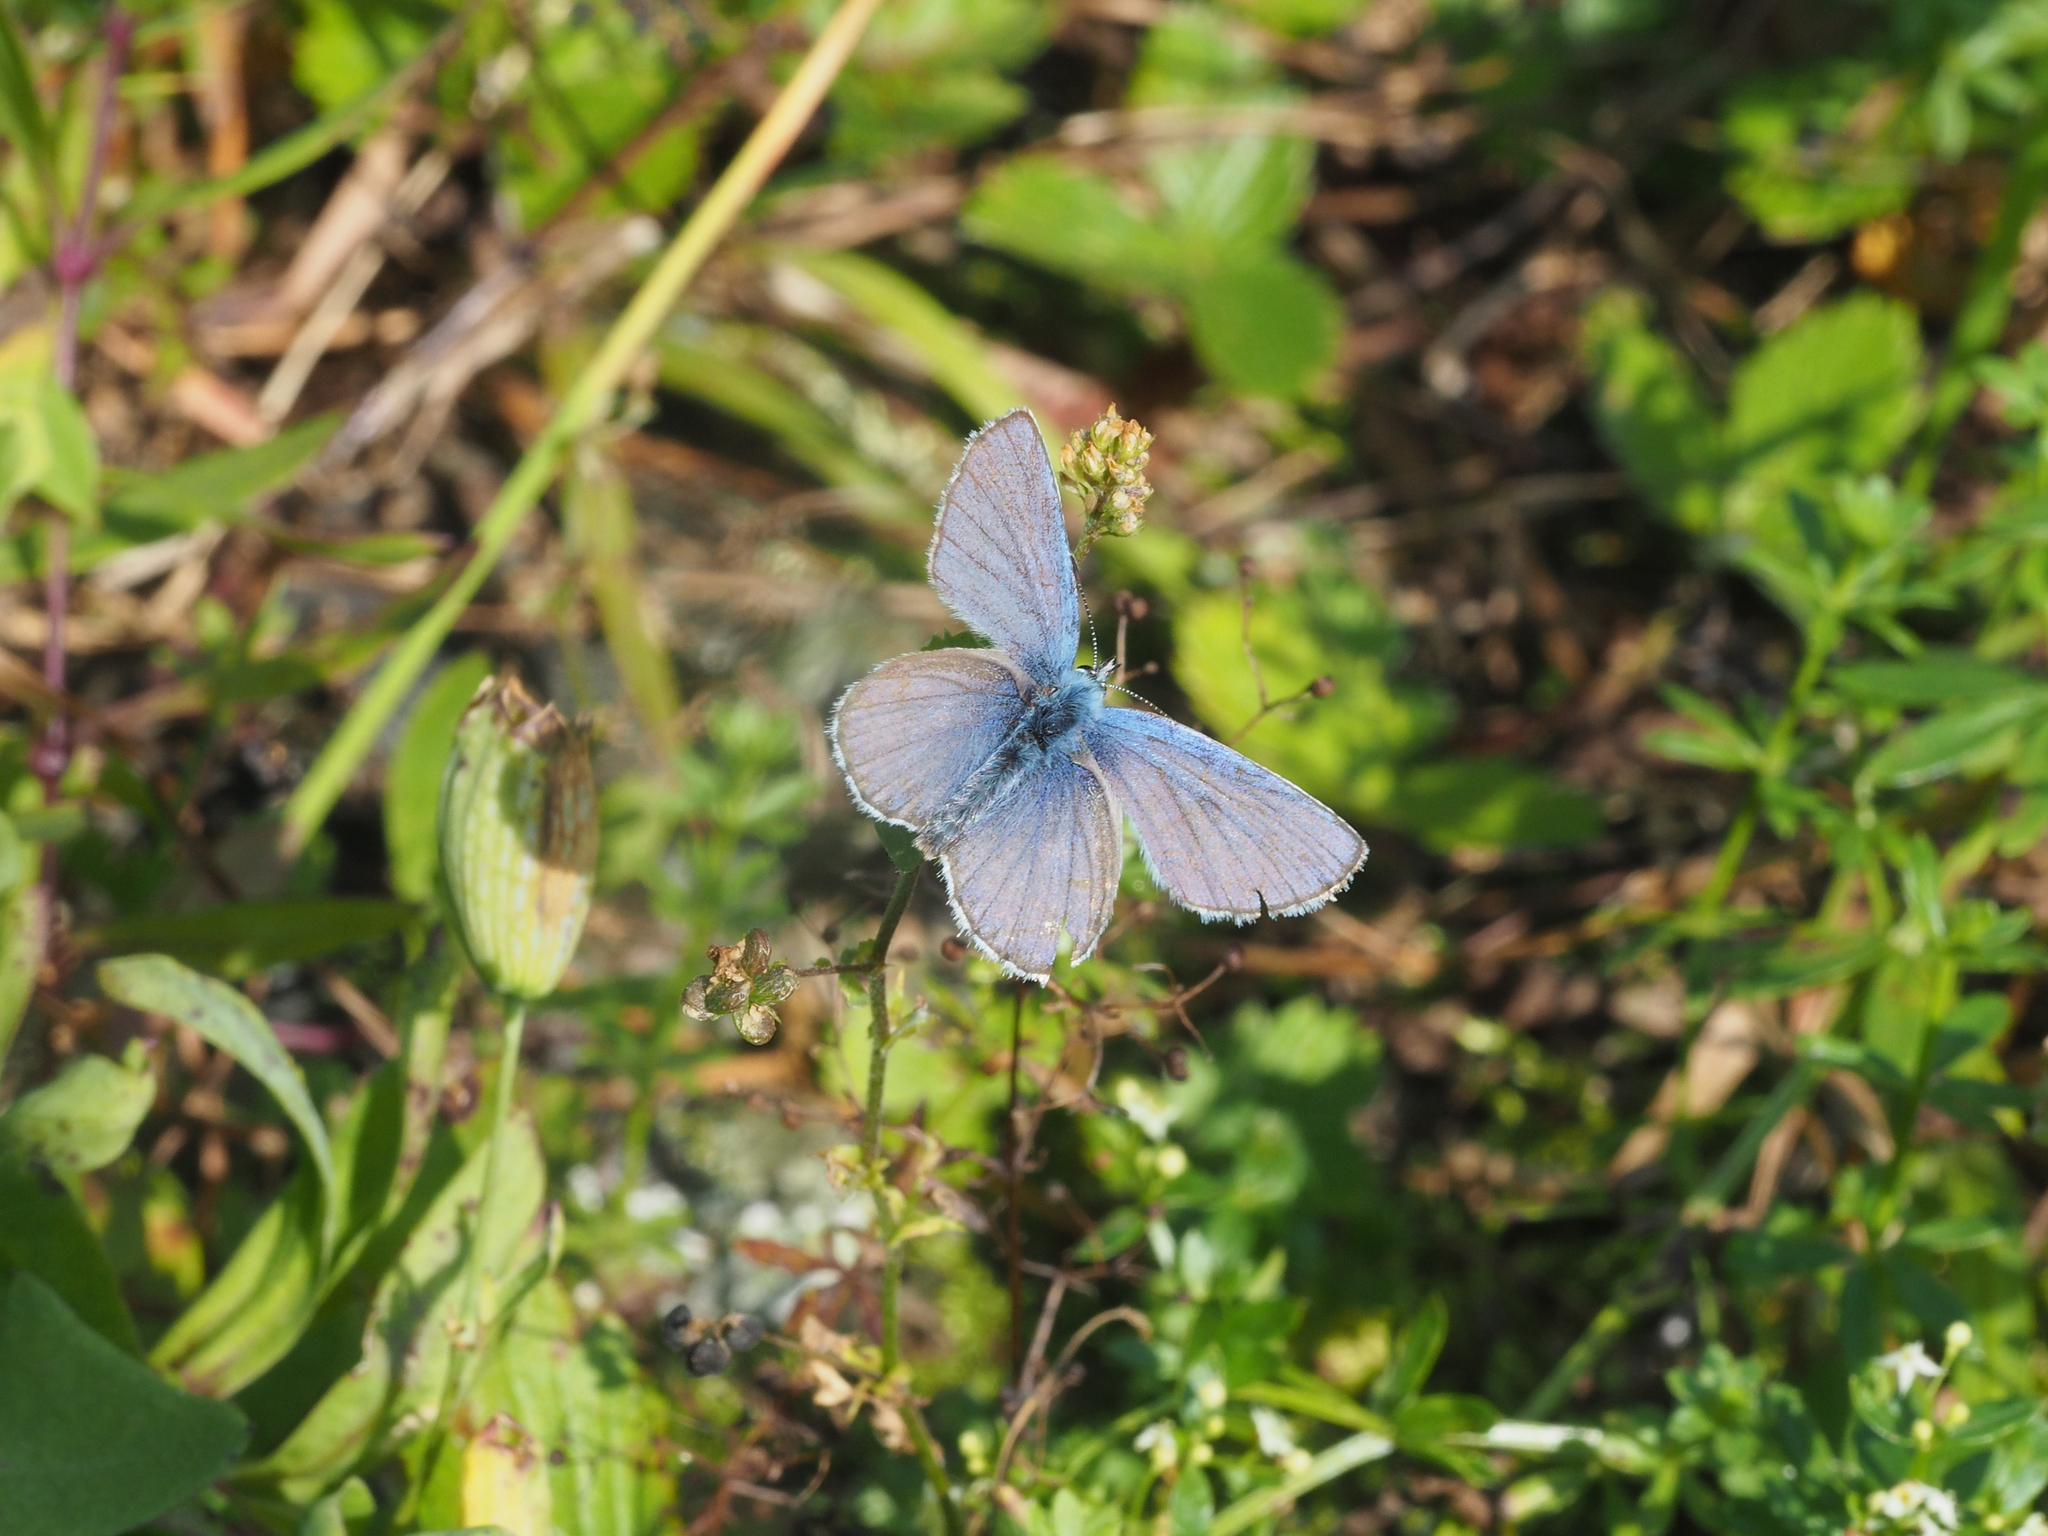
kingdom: Animalia
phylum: Arthropoda
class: Insecta
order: Lepidoptera
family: Lycaenidae
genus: Lycaeides
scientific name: Lycaeides idas
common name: Northern blue
